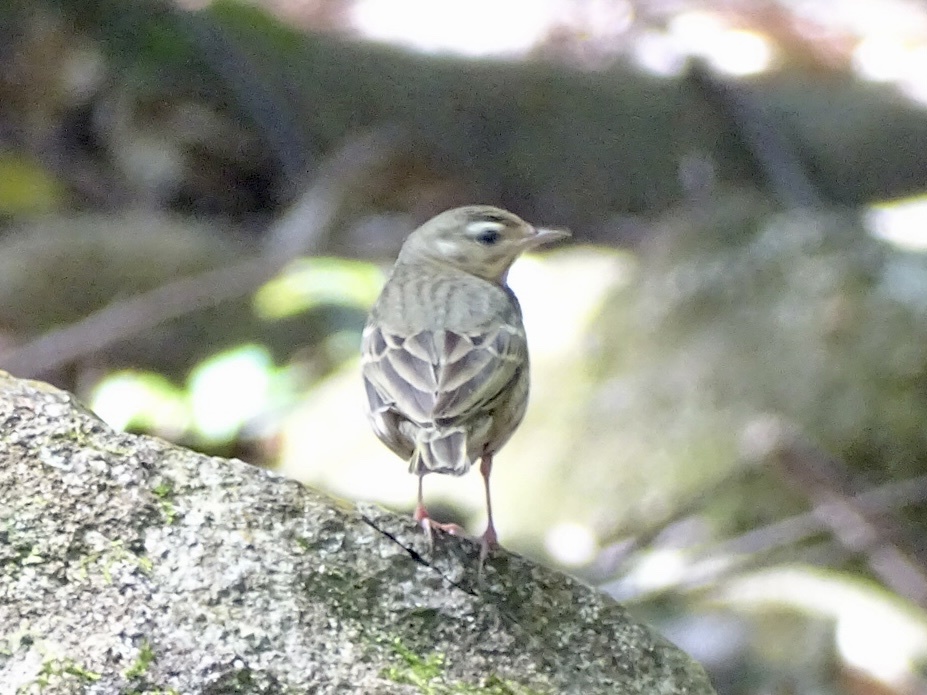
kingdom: Animalia
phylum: Chordata
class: Aves
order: Passeriformes
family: Motacillidae
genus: Anthus
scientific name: Anthus hodgsoni
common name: Olive-backed pipit
